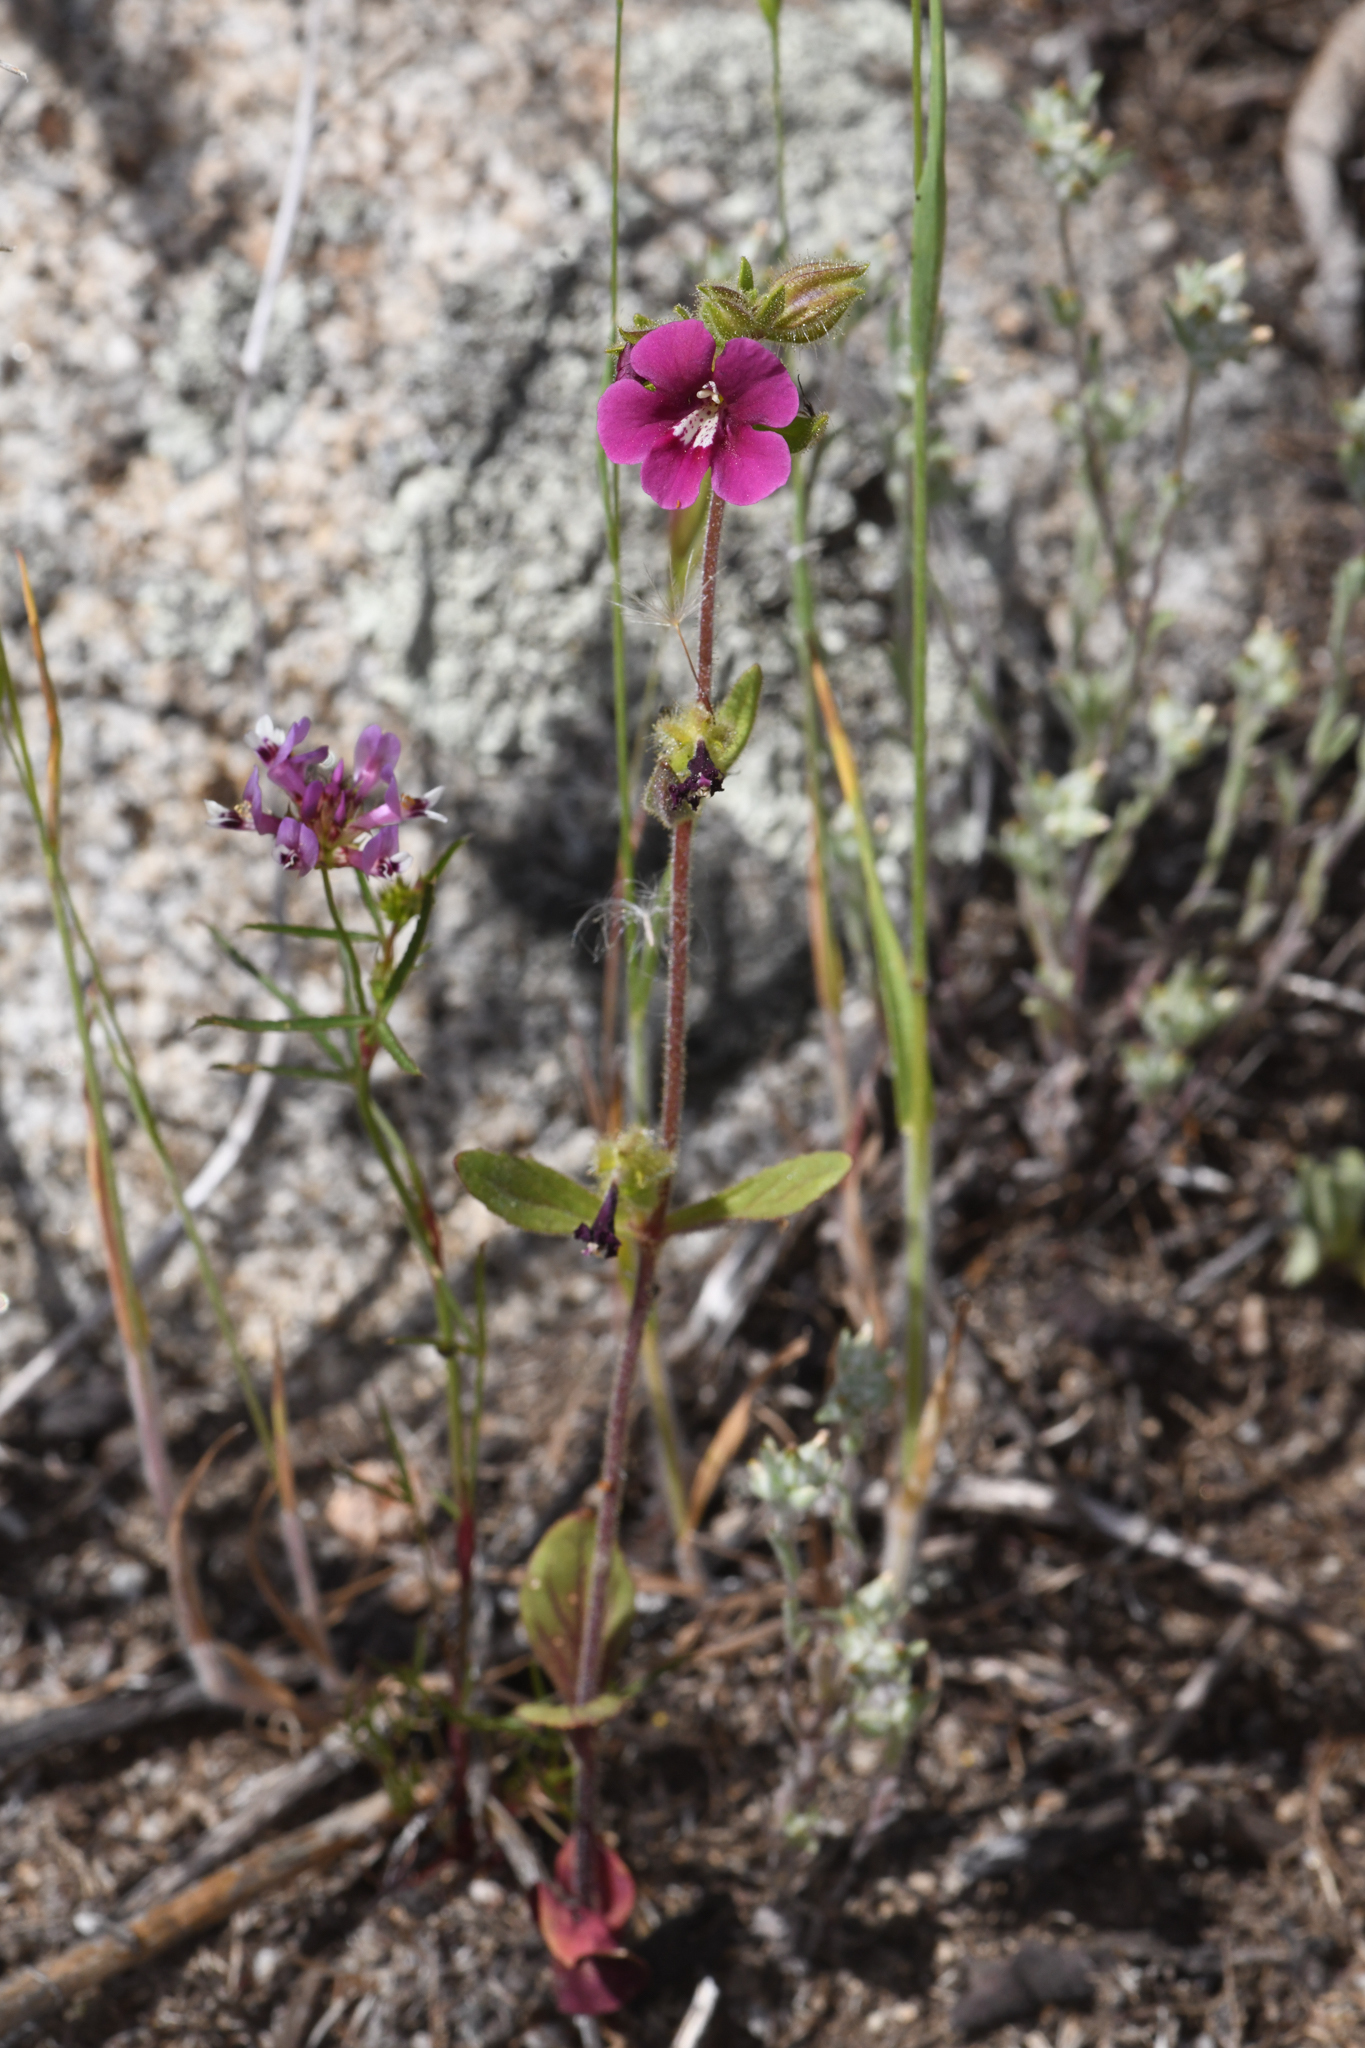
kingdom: Plantae
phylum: Tracheophyta
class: Magnoliopsida
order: Lamiales
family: Phrymaceae
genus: Diplacus
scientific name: Diplacus bolanderi
